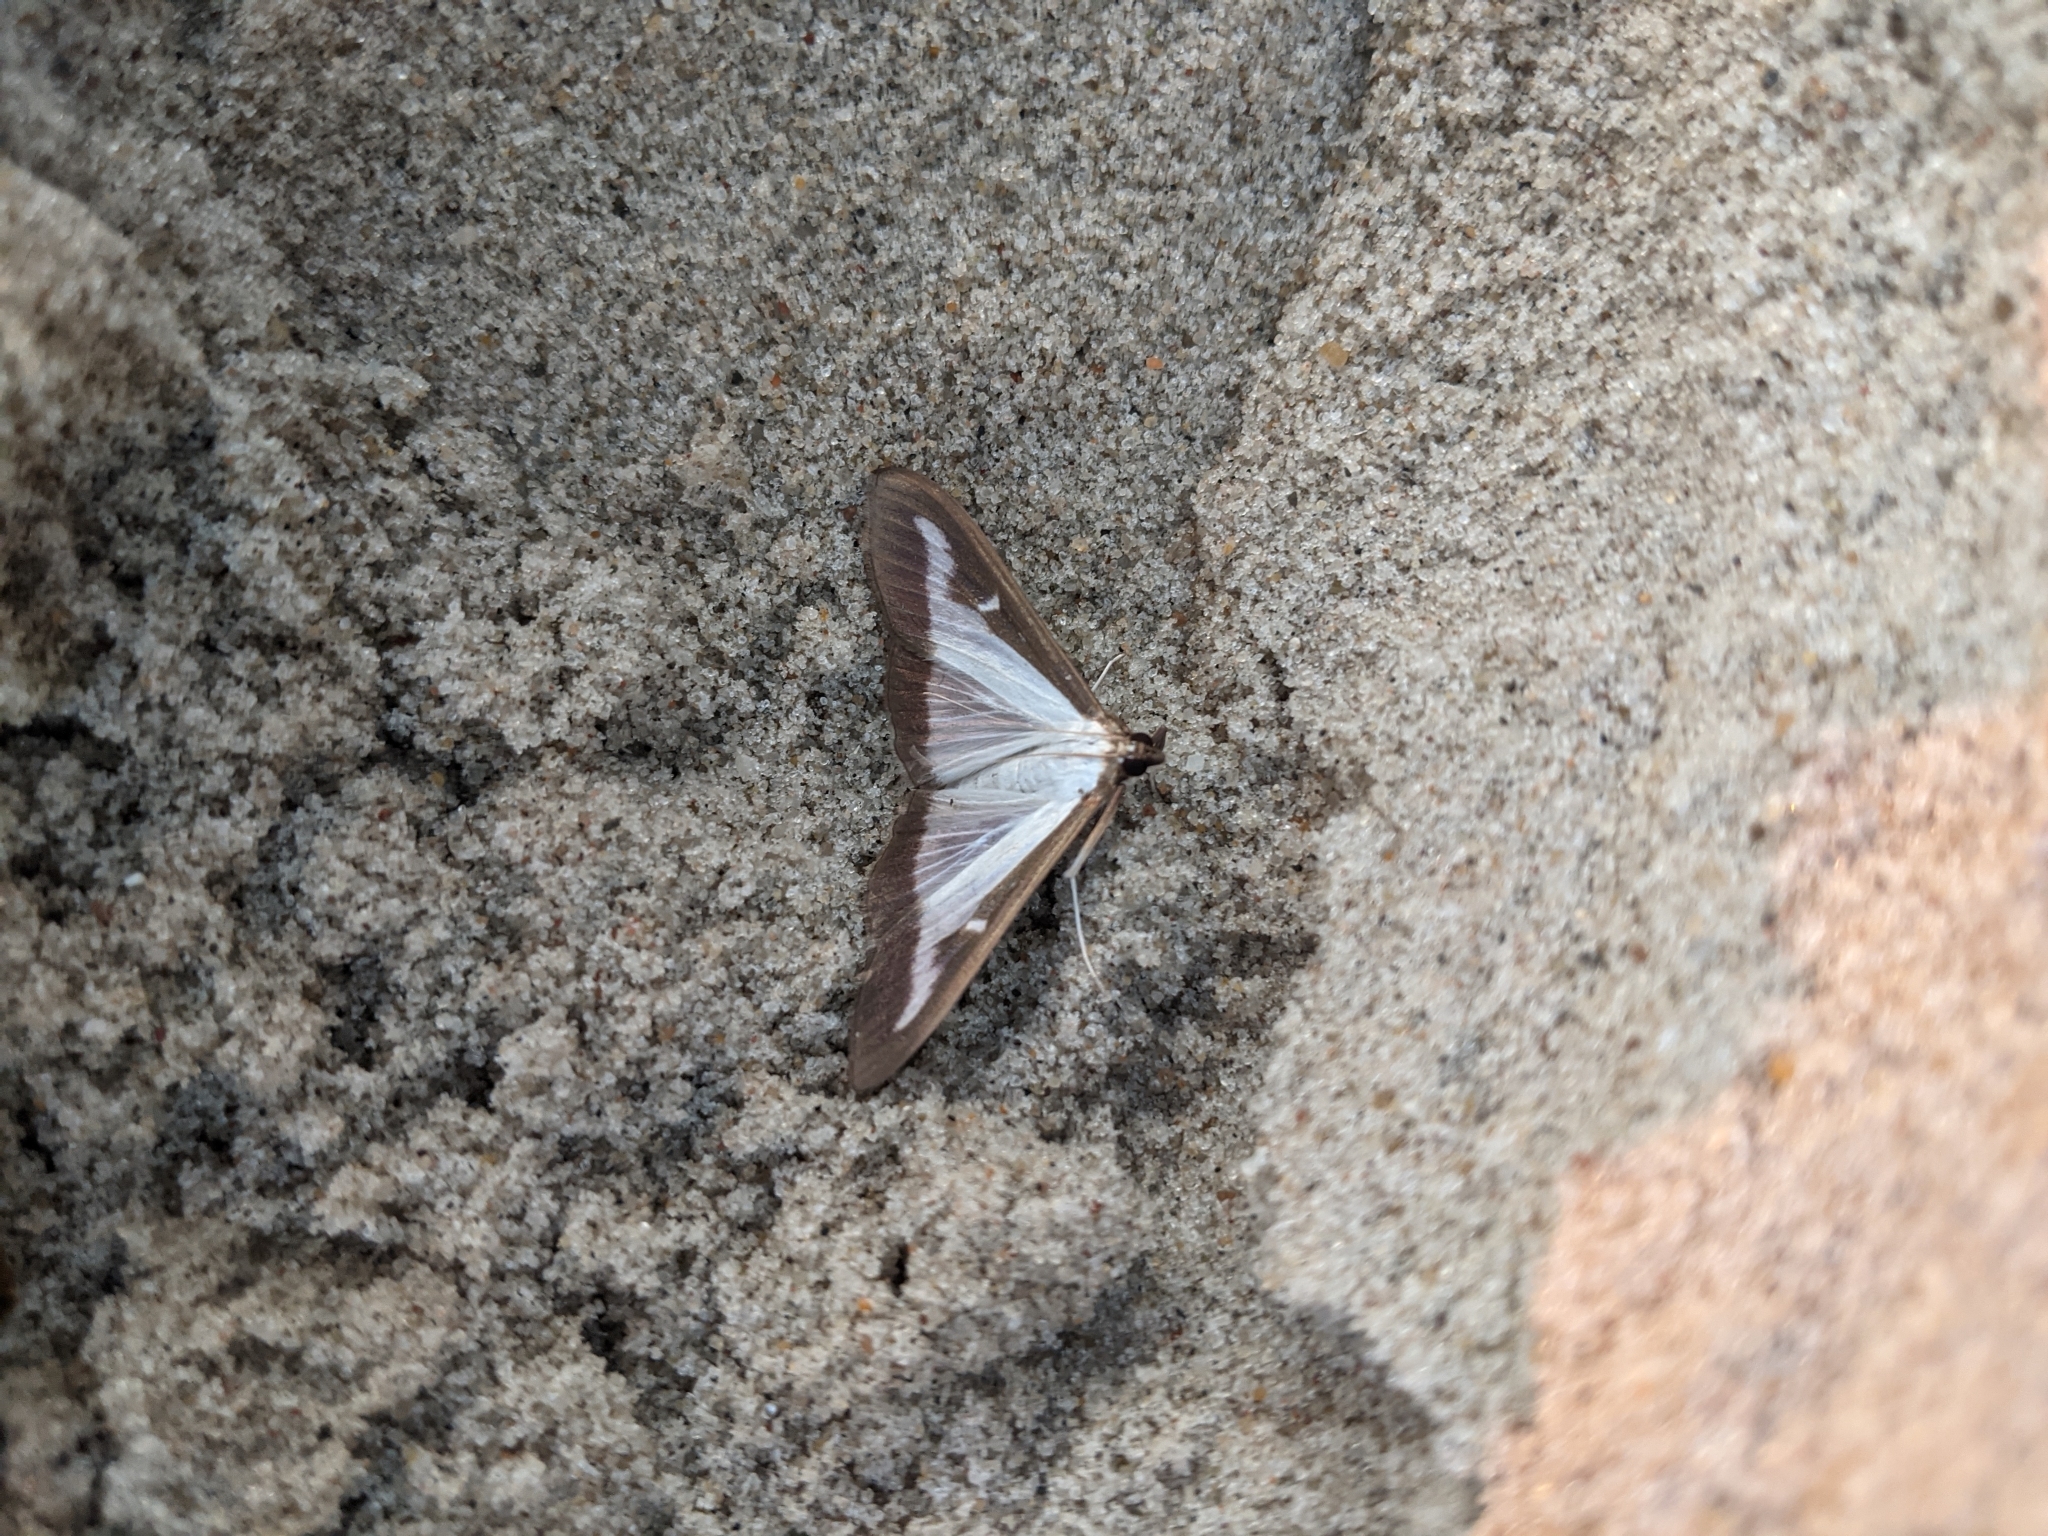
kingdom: Animalia
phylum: Arthropoda
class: Insecta
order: Lepidoptera
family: Crambidae
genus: Cydalima
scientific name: Cydalima perspectalis
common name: Box tree moth
